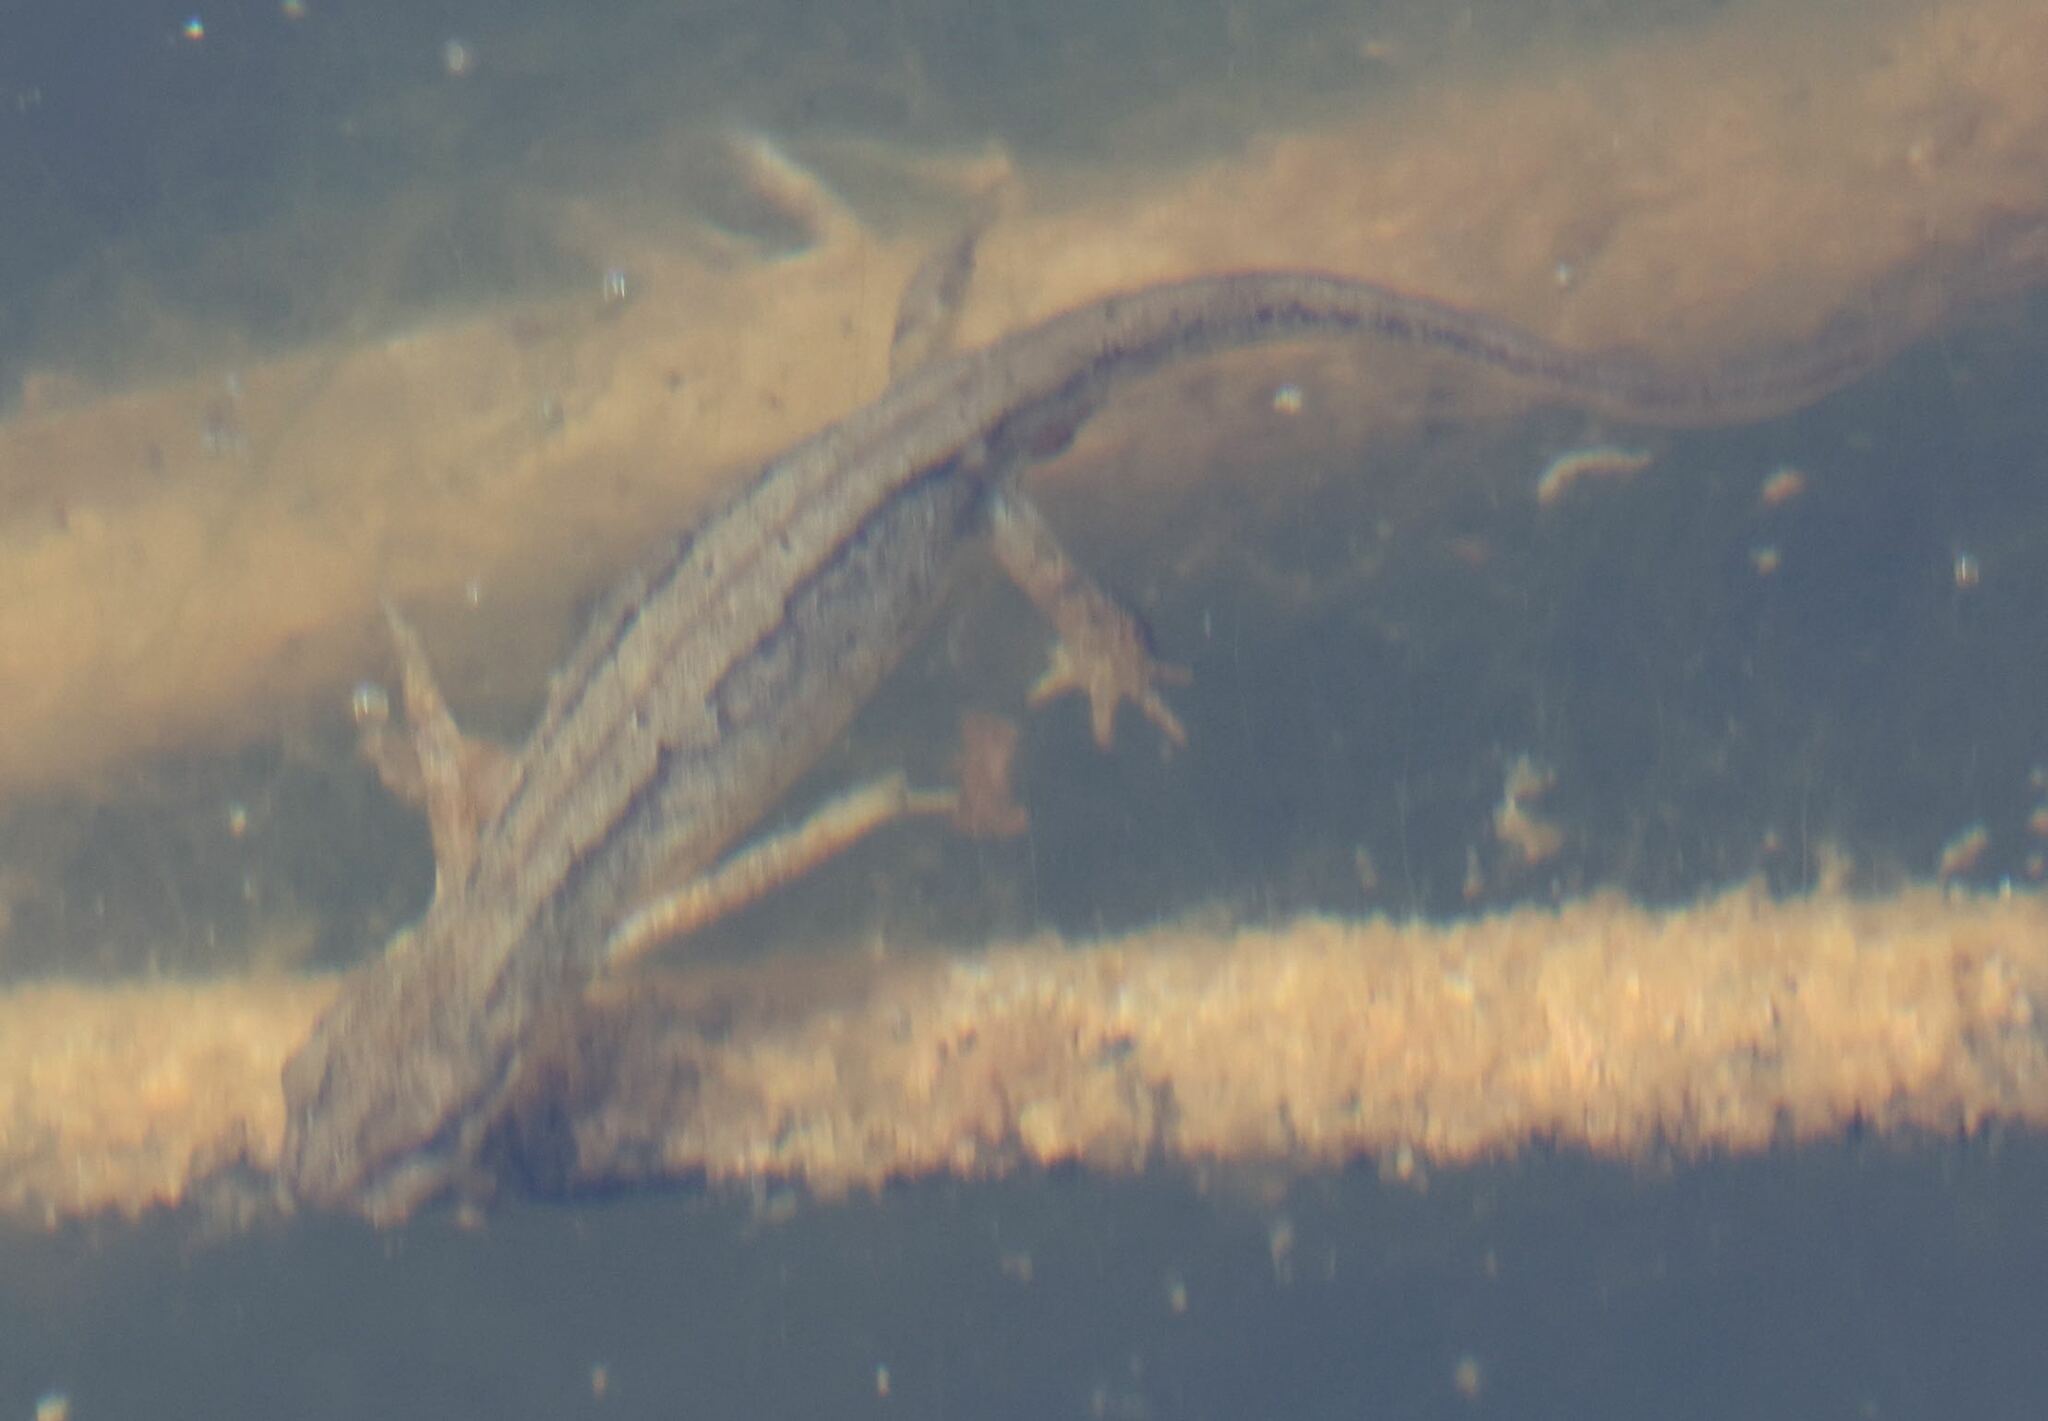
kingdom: Animalia
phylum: Chordata
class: Amphibia
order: Caudata
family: Salamandridae
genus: Lissotriton
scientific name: Lissotriton vulgaris
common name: Smooth newt
